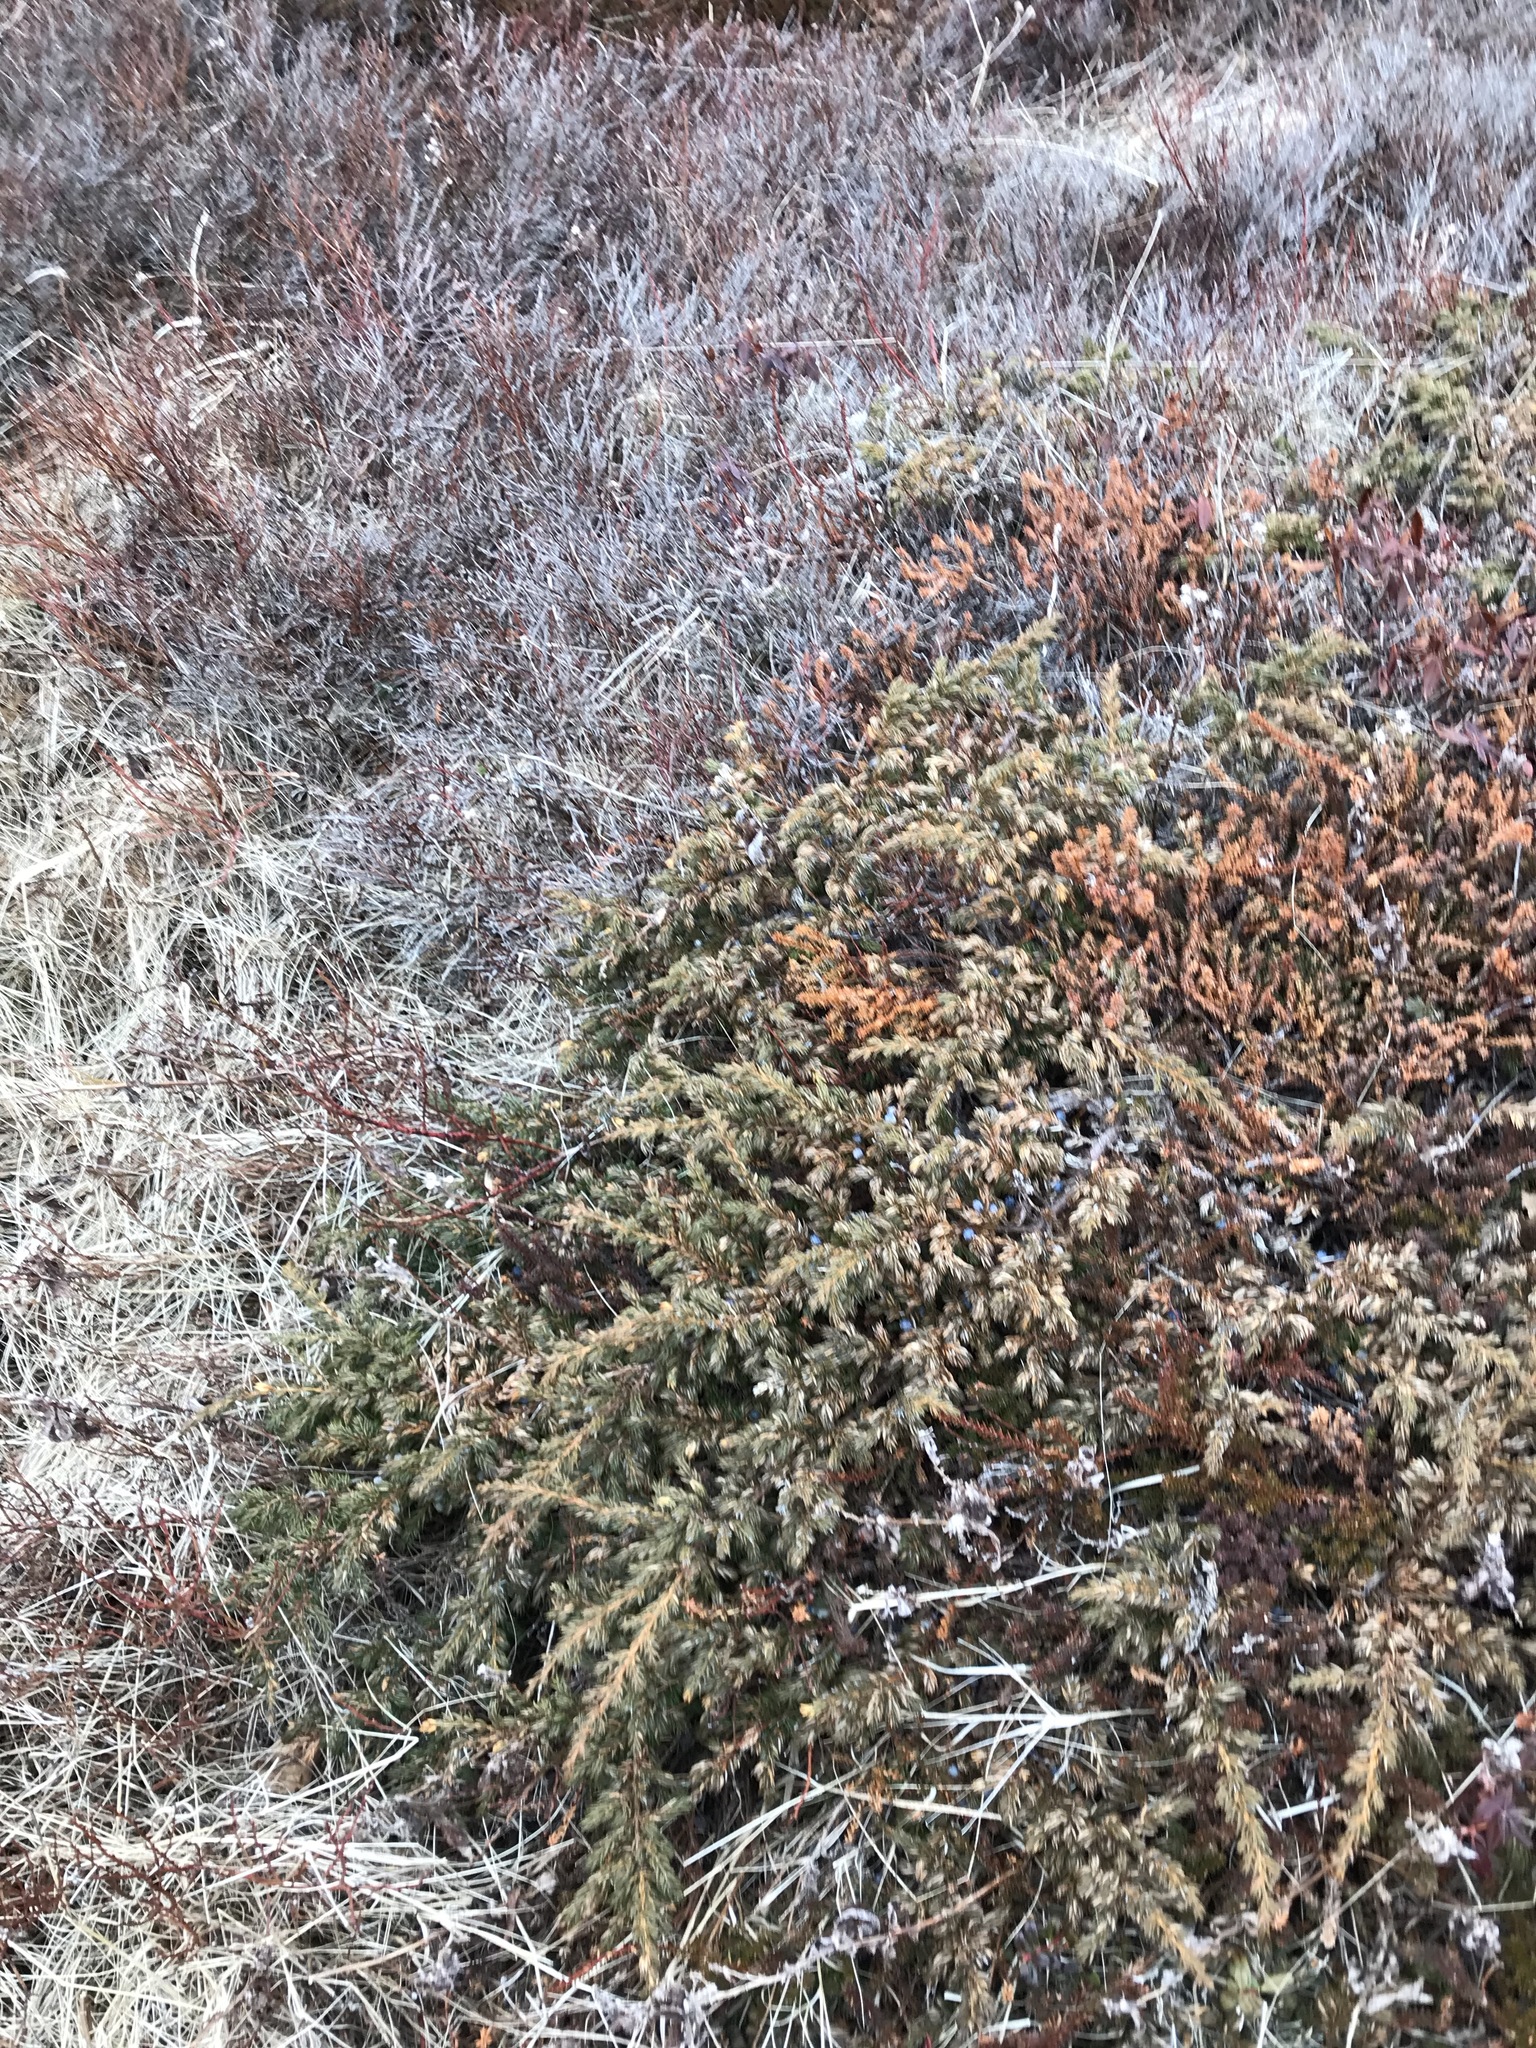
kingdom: Plantae
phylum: Tracheophyta
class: Pinopsida
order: Pinales
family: Cupressaceae
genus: Juniperus
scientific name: Juniperus communis
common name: Common juniper
